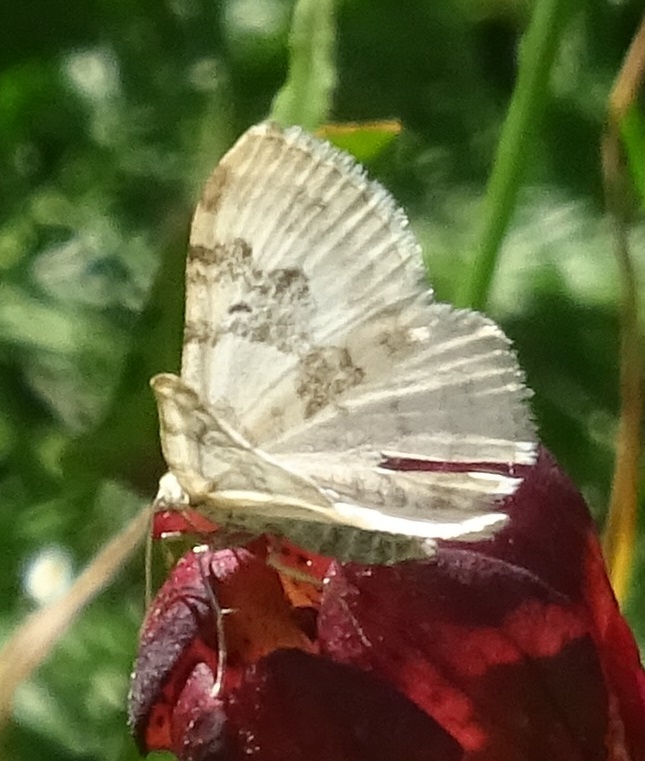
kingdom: Animalia
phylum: Arthropoda
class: Insecta
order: Lepidoptera
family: Geometridae
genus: Xanthorhoe
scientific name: Xanthorhoe montanata
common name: Silver-ground carpet
